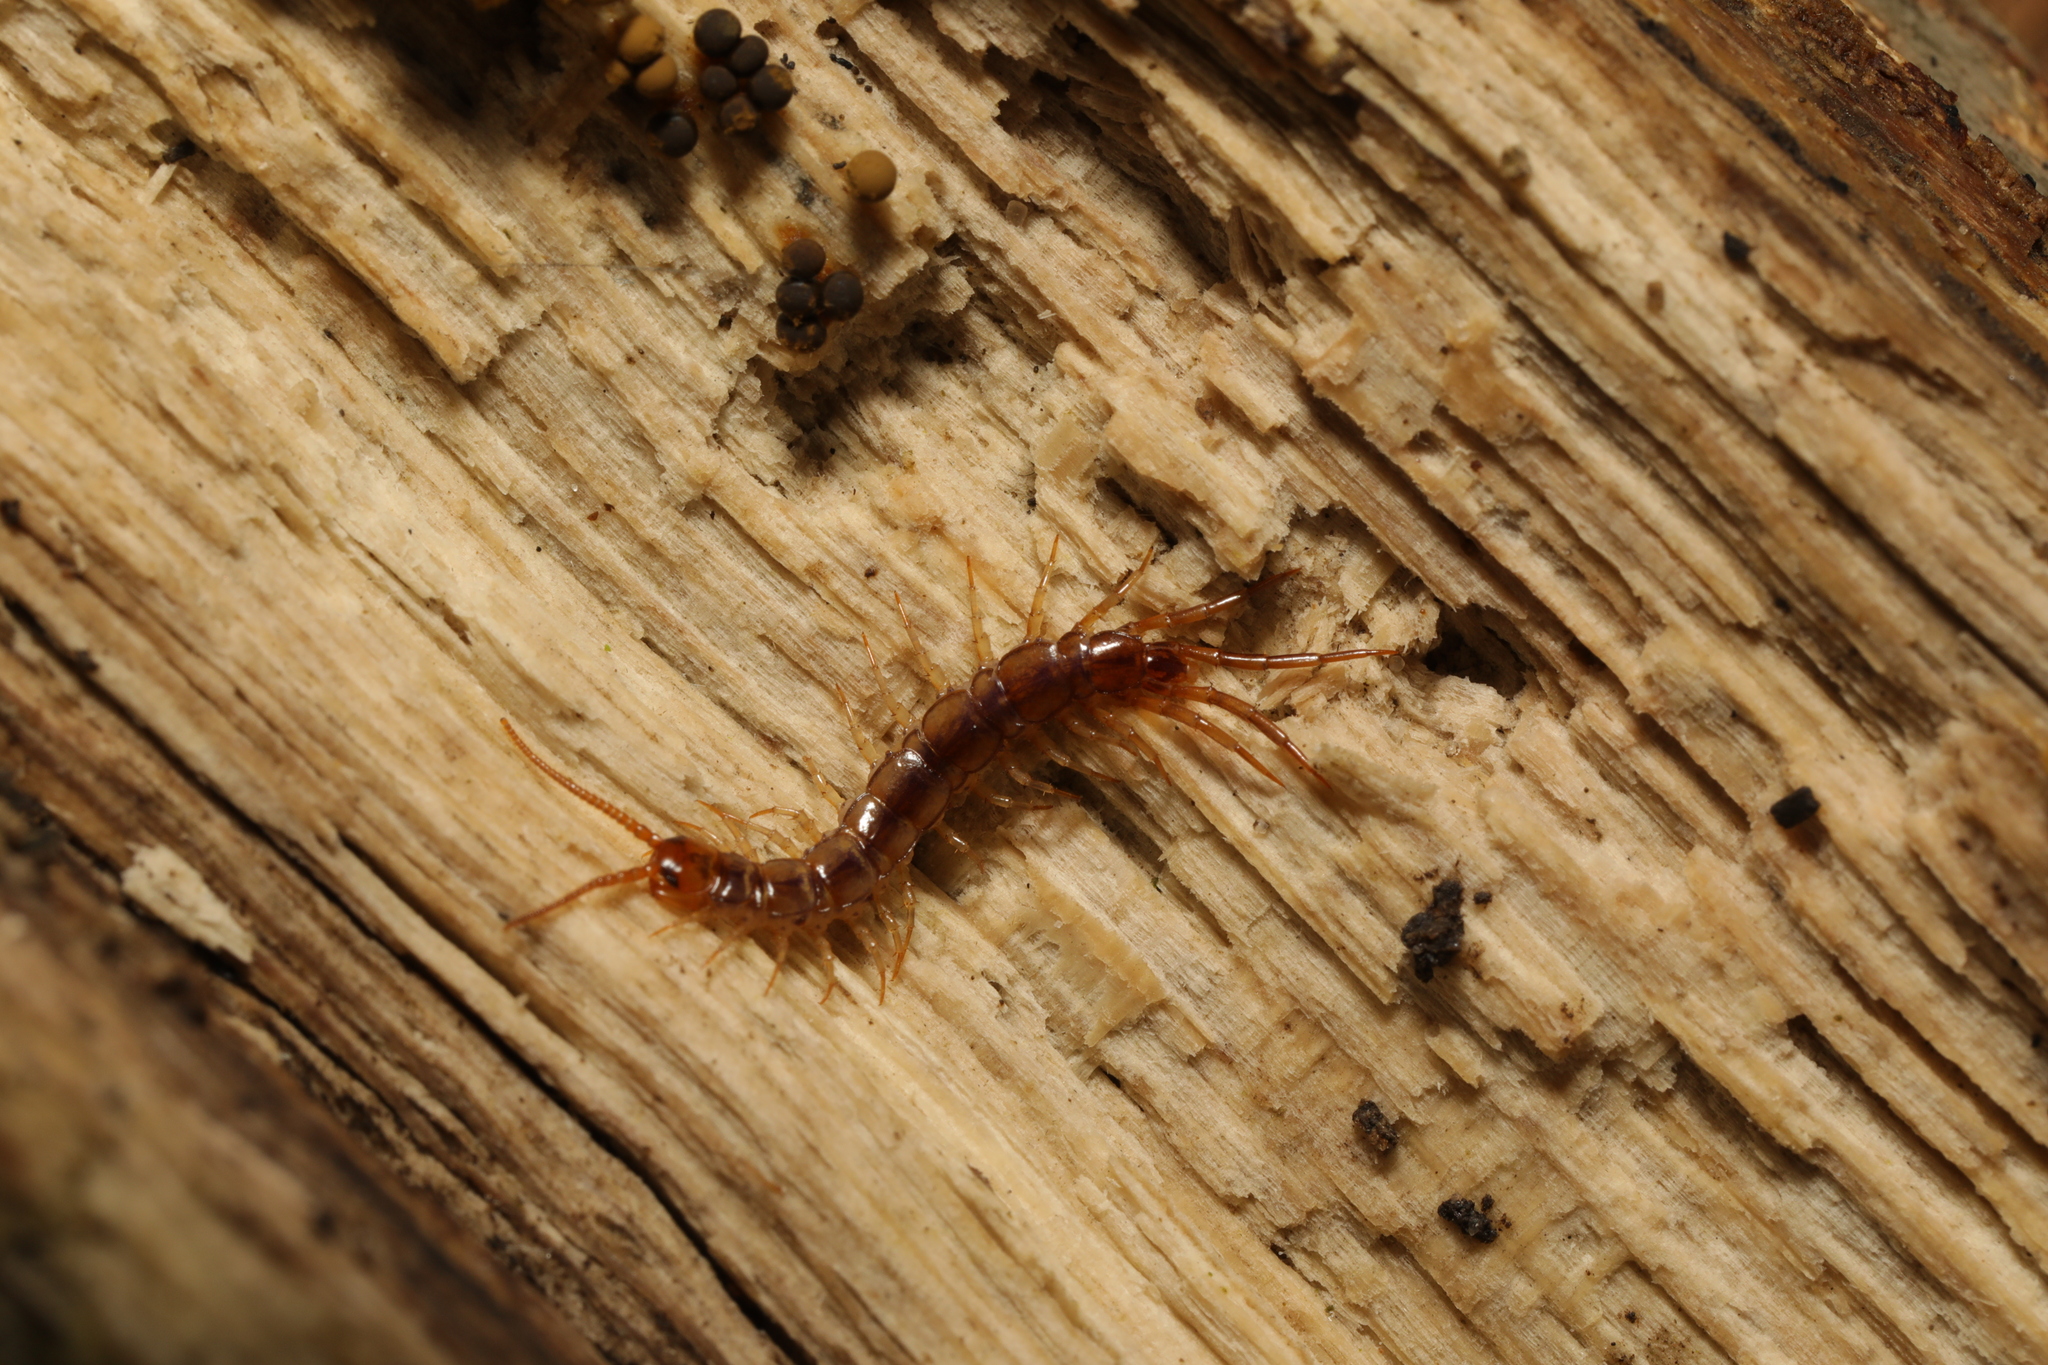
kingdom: Animalia
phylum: Arthropoda
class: Chilopoda
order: Lithobiomorpha
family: Lithobiidae
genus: Lithobius
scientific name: Lithobius melanops
